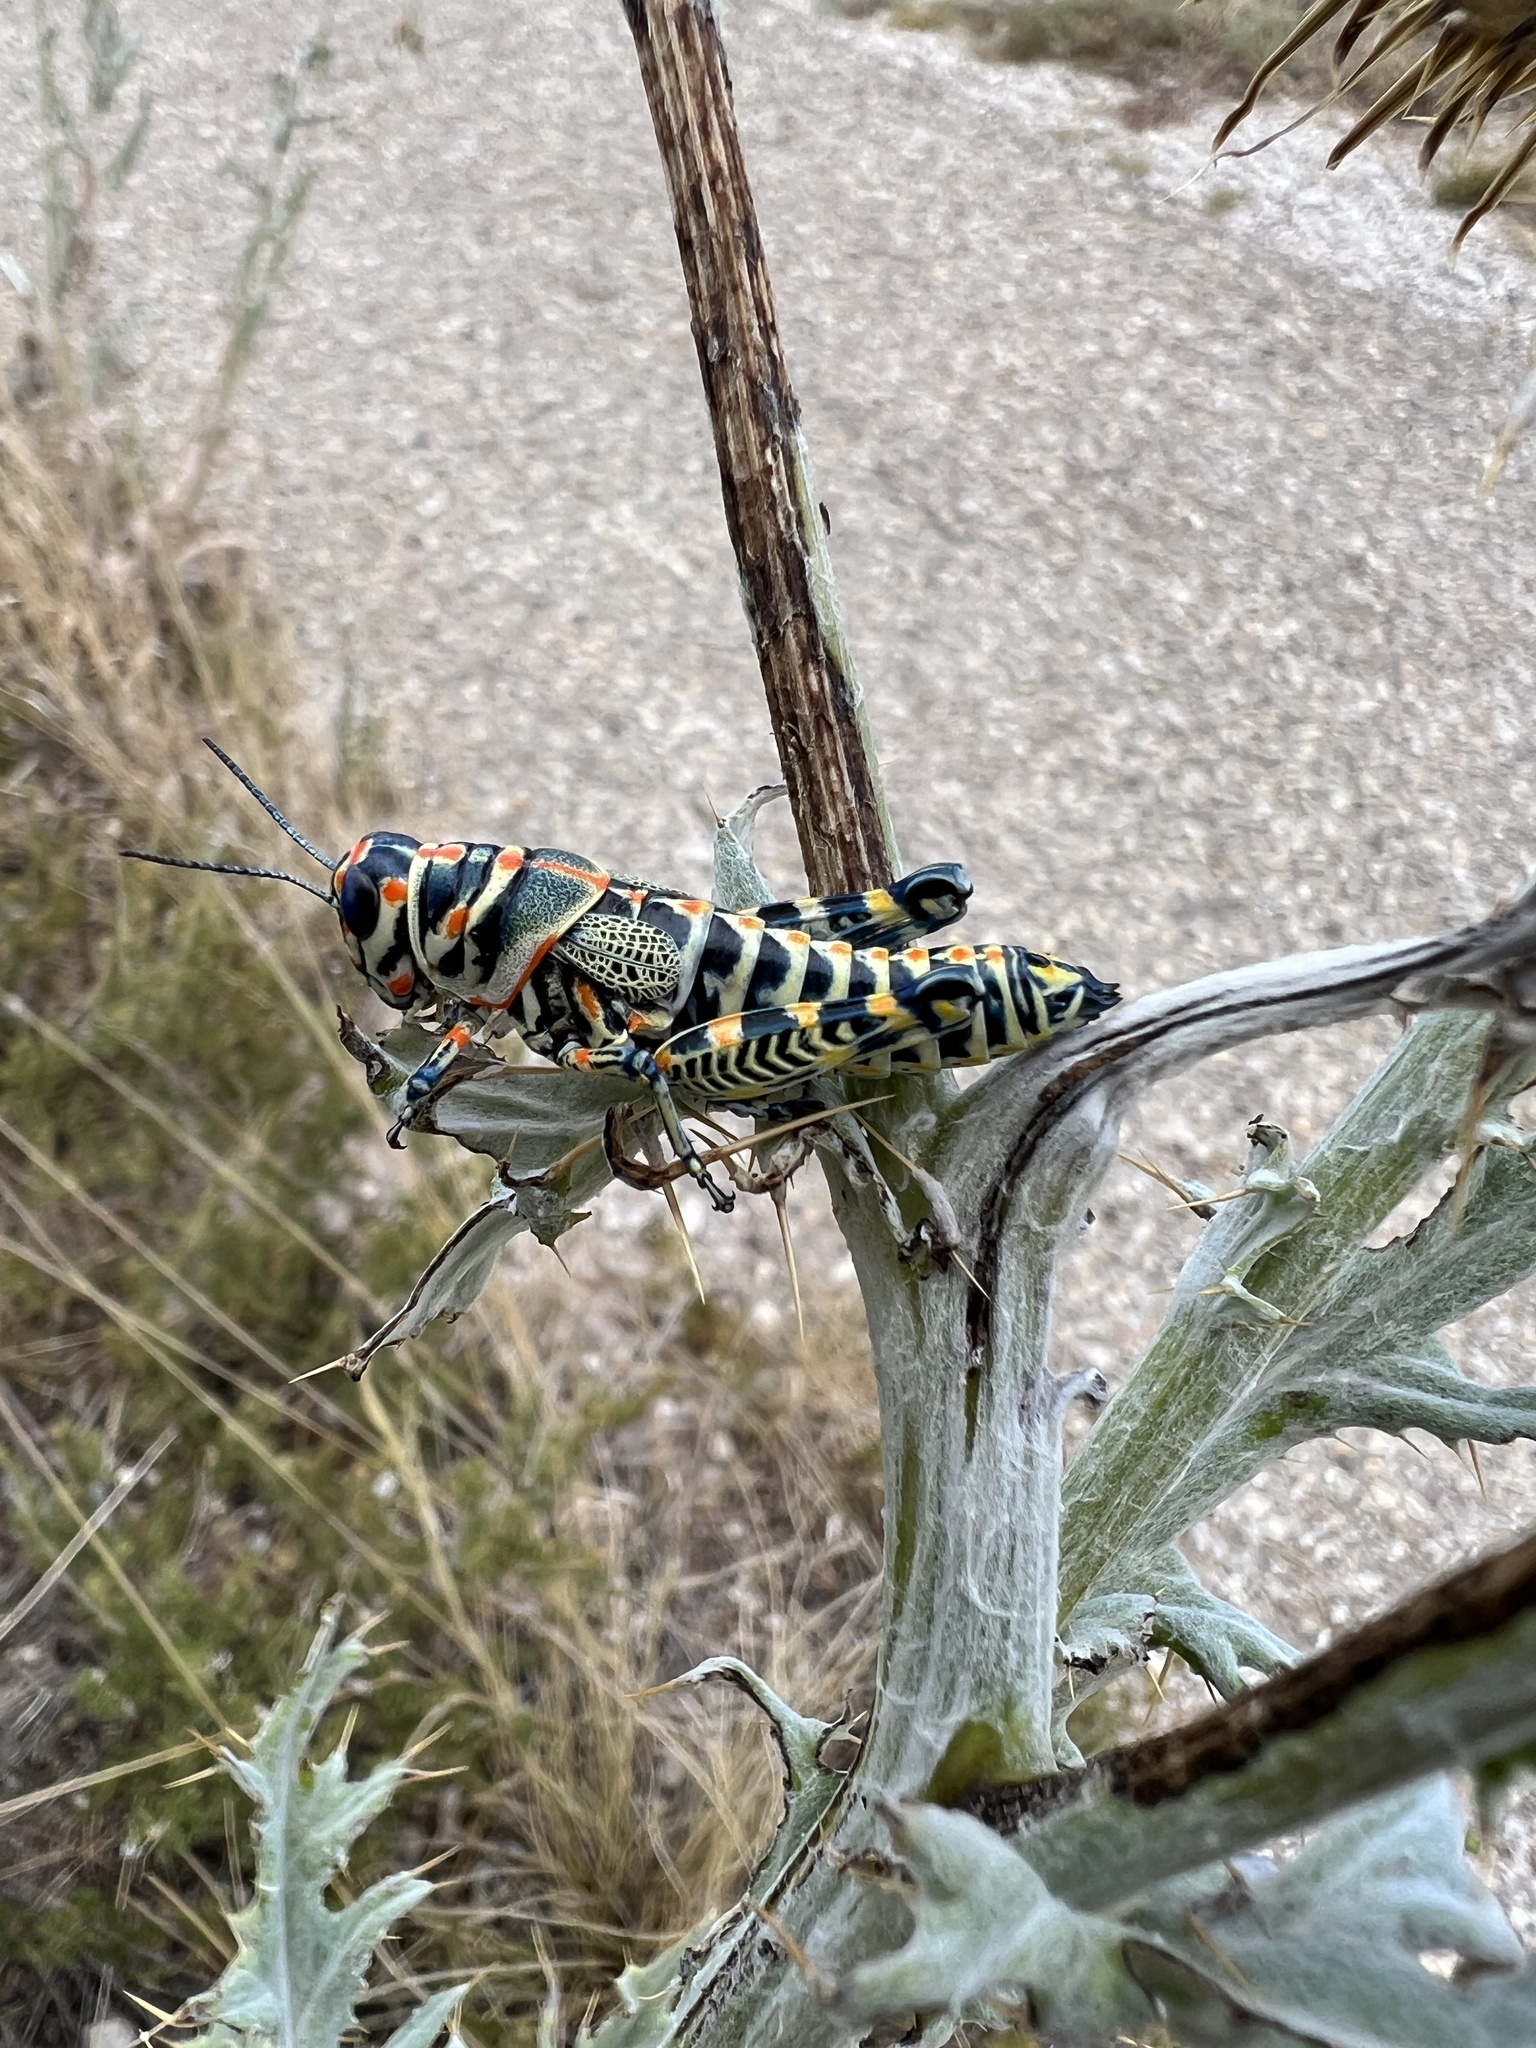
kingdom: Animalia
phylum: Arthropoda
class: Insecta
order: Orthoptera
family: Acrididae
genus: Dactylotum
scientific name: Dactylotum bicolor
